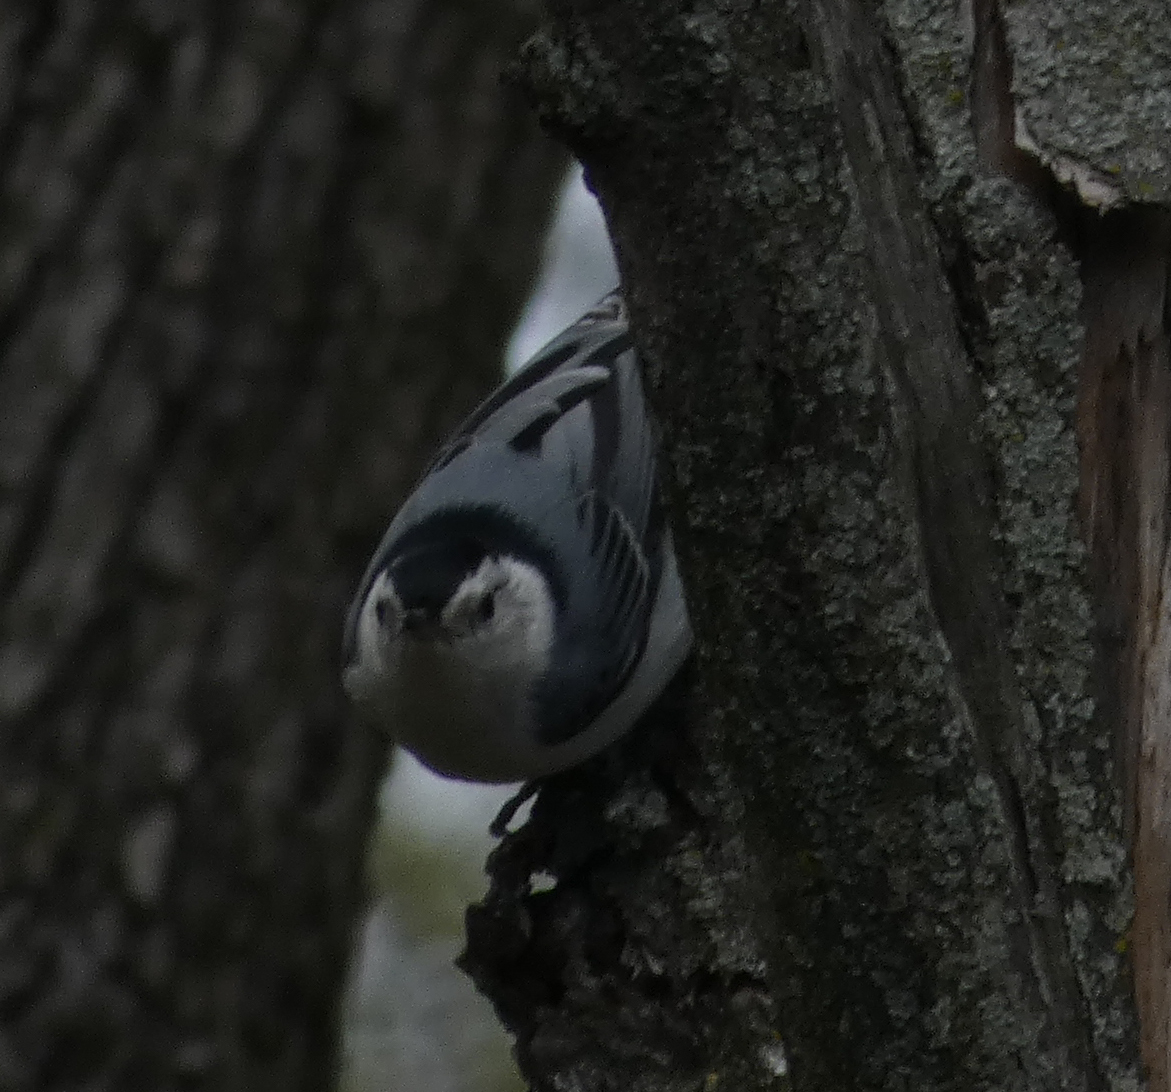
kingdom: Animalia
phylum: Chordata
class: Aves
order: Passeriformes
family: Sittidae
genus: Sitta
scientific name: Sitta carolinensis
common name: White-breasted nuthatch
